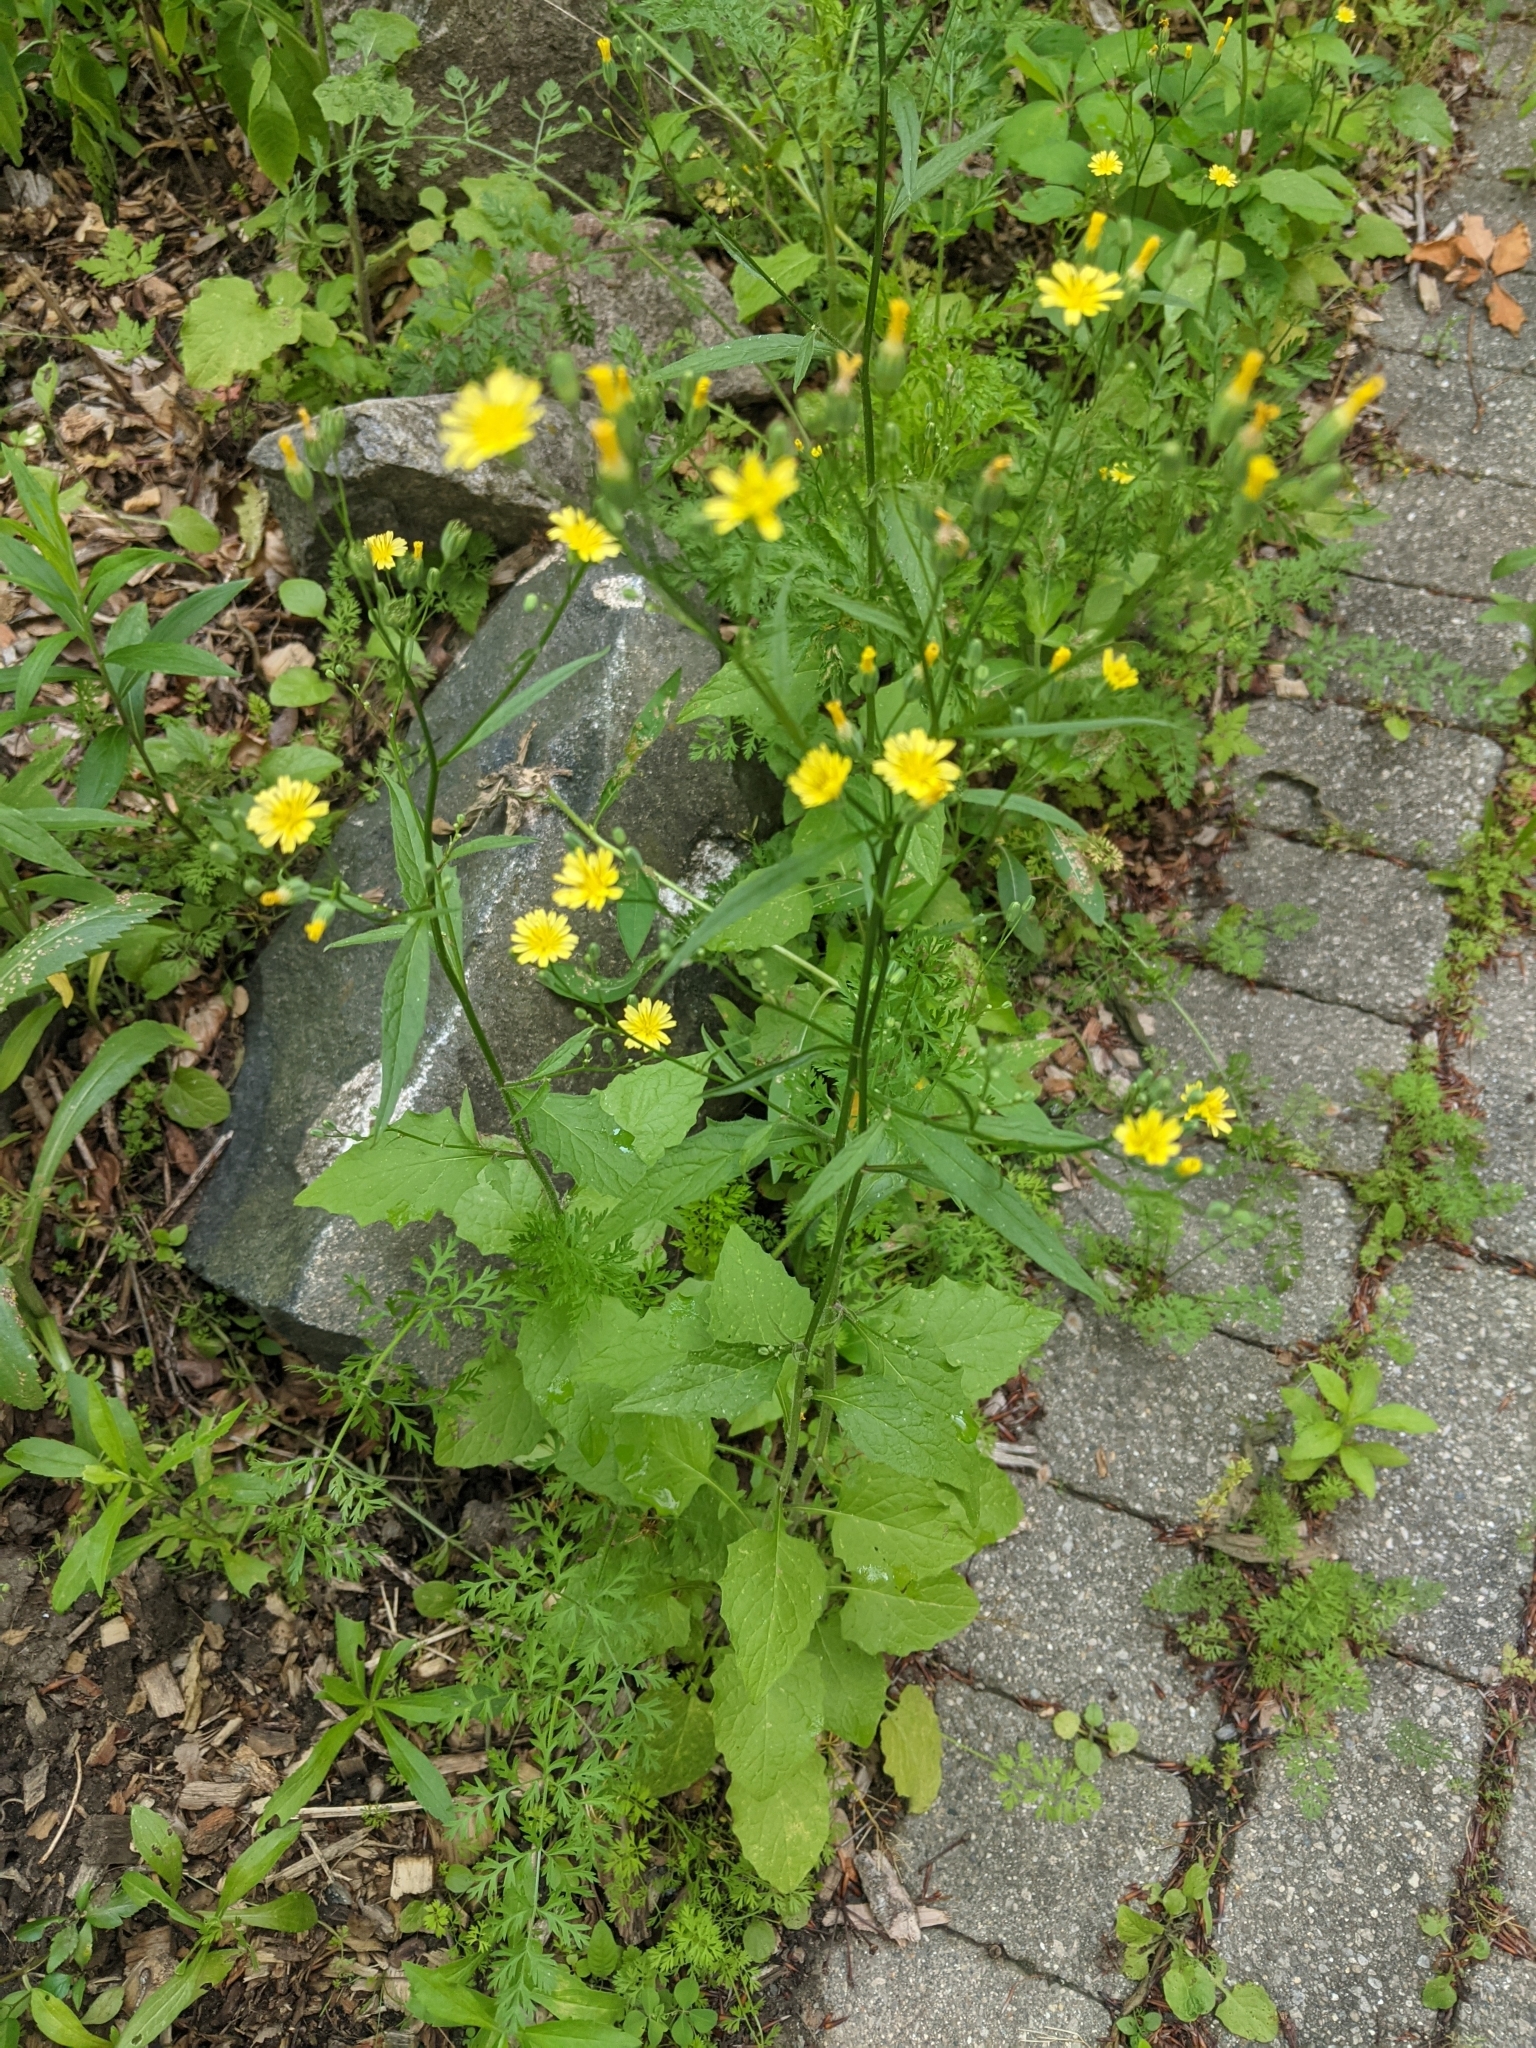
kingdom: Plantae
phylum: Tracheophyta
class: Magnoliopsida
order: Asterales
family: Asteraceae
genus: Lapsana
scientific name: Lapsana communis
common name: Nipplewort
